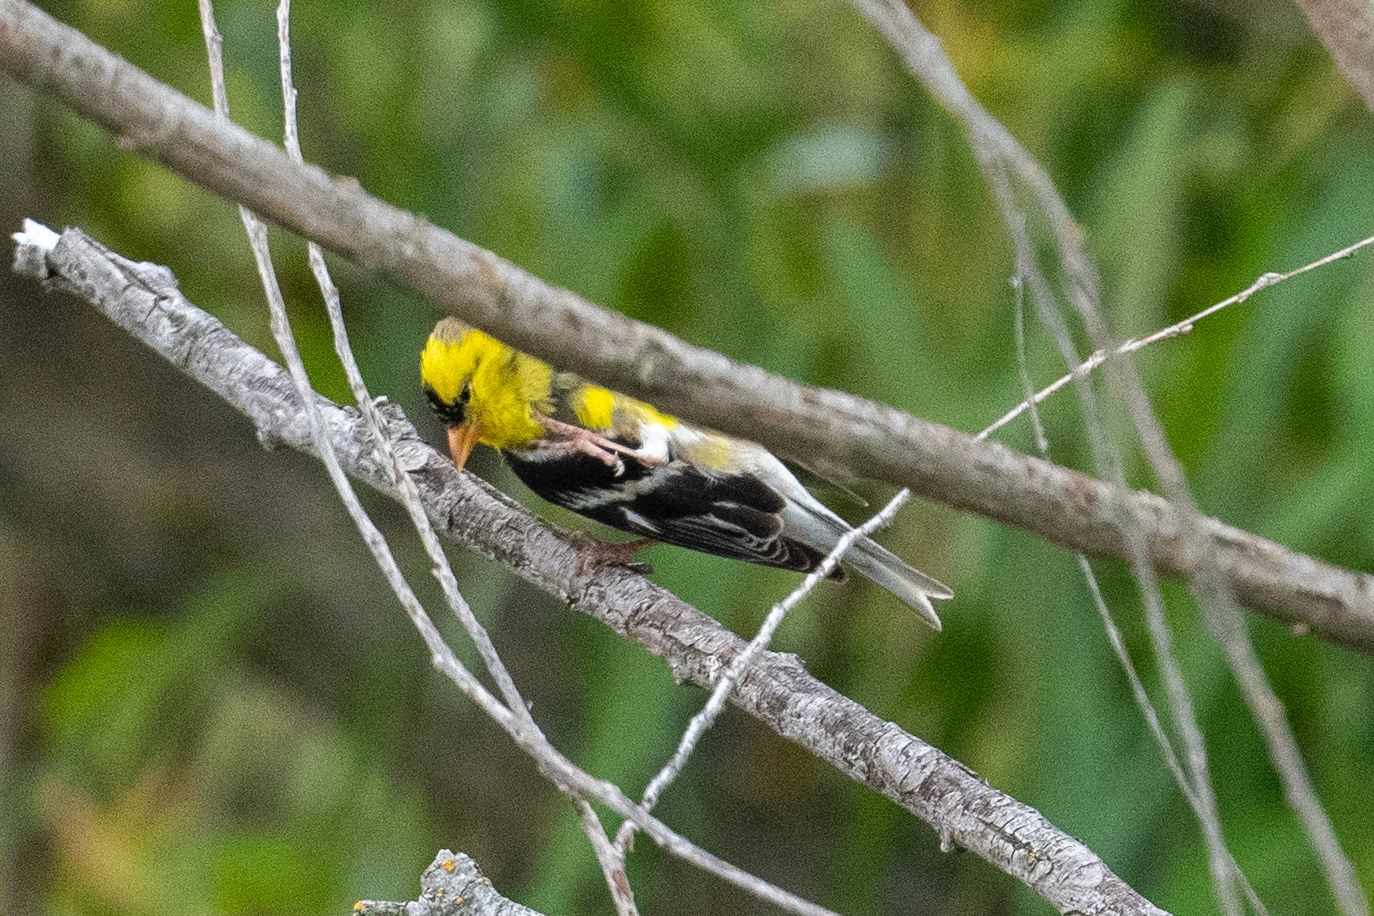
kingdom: Animalia
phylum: Chordata
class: Aves
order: Passeriformes
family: Fringillidae
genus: Spinus
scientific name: Spinus tristis
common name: American goldfinch
